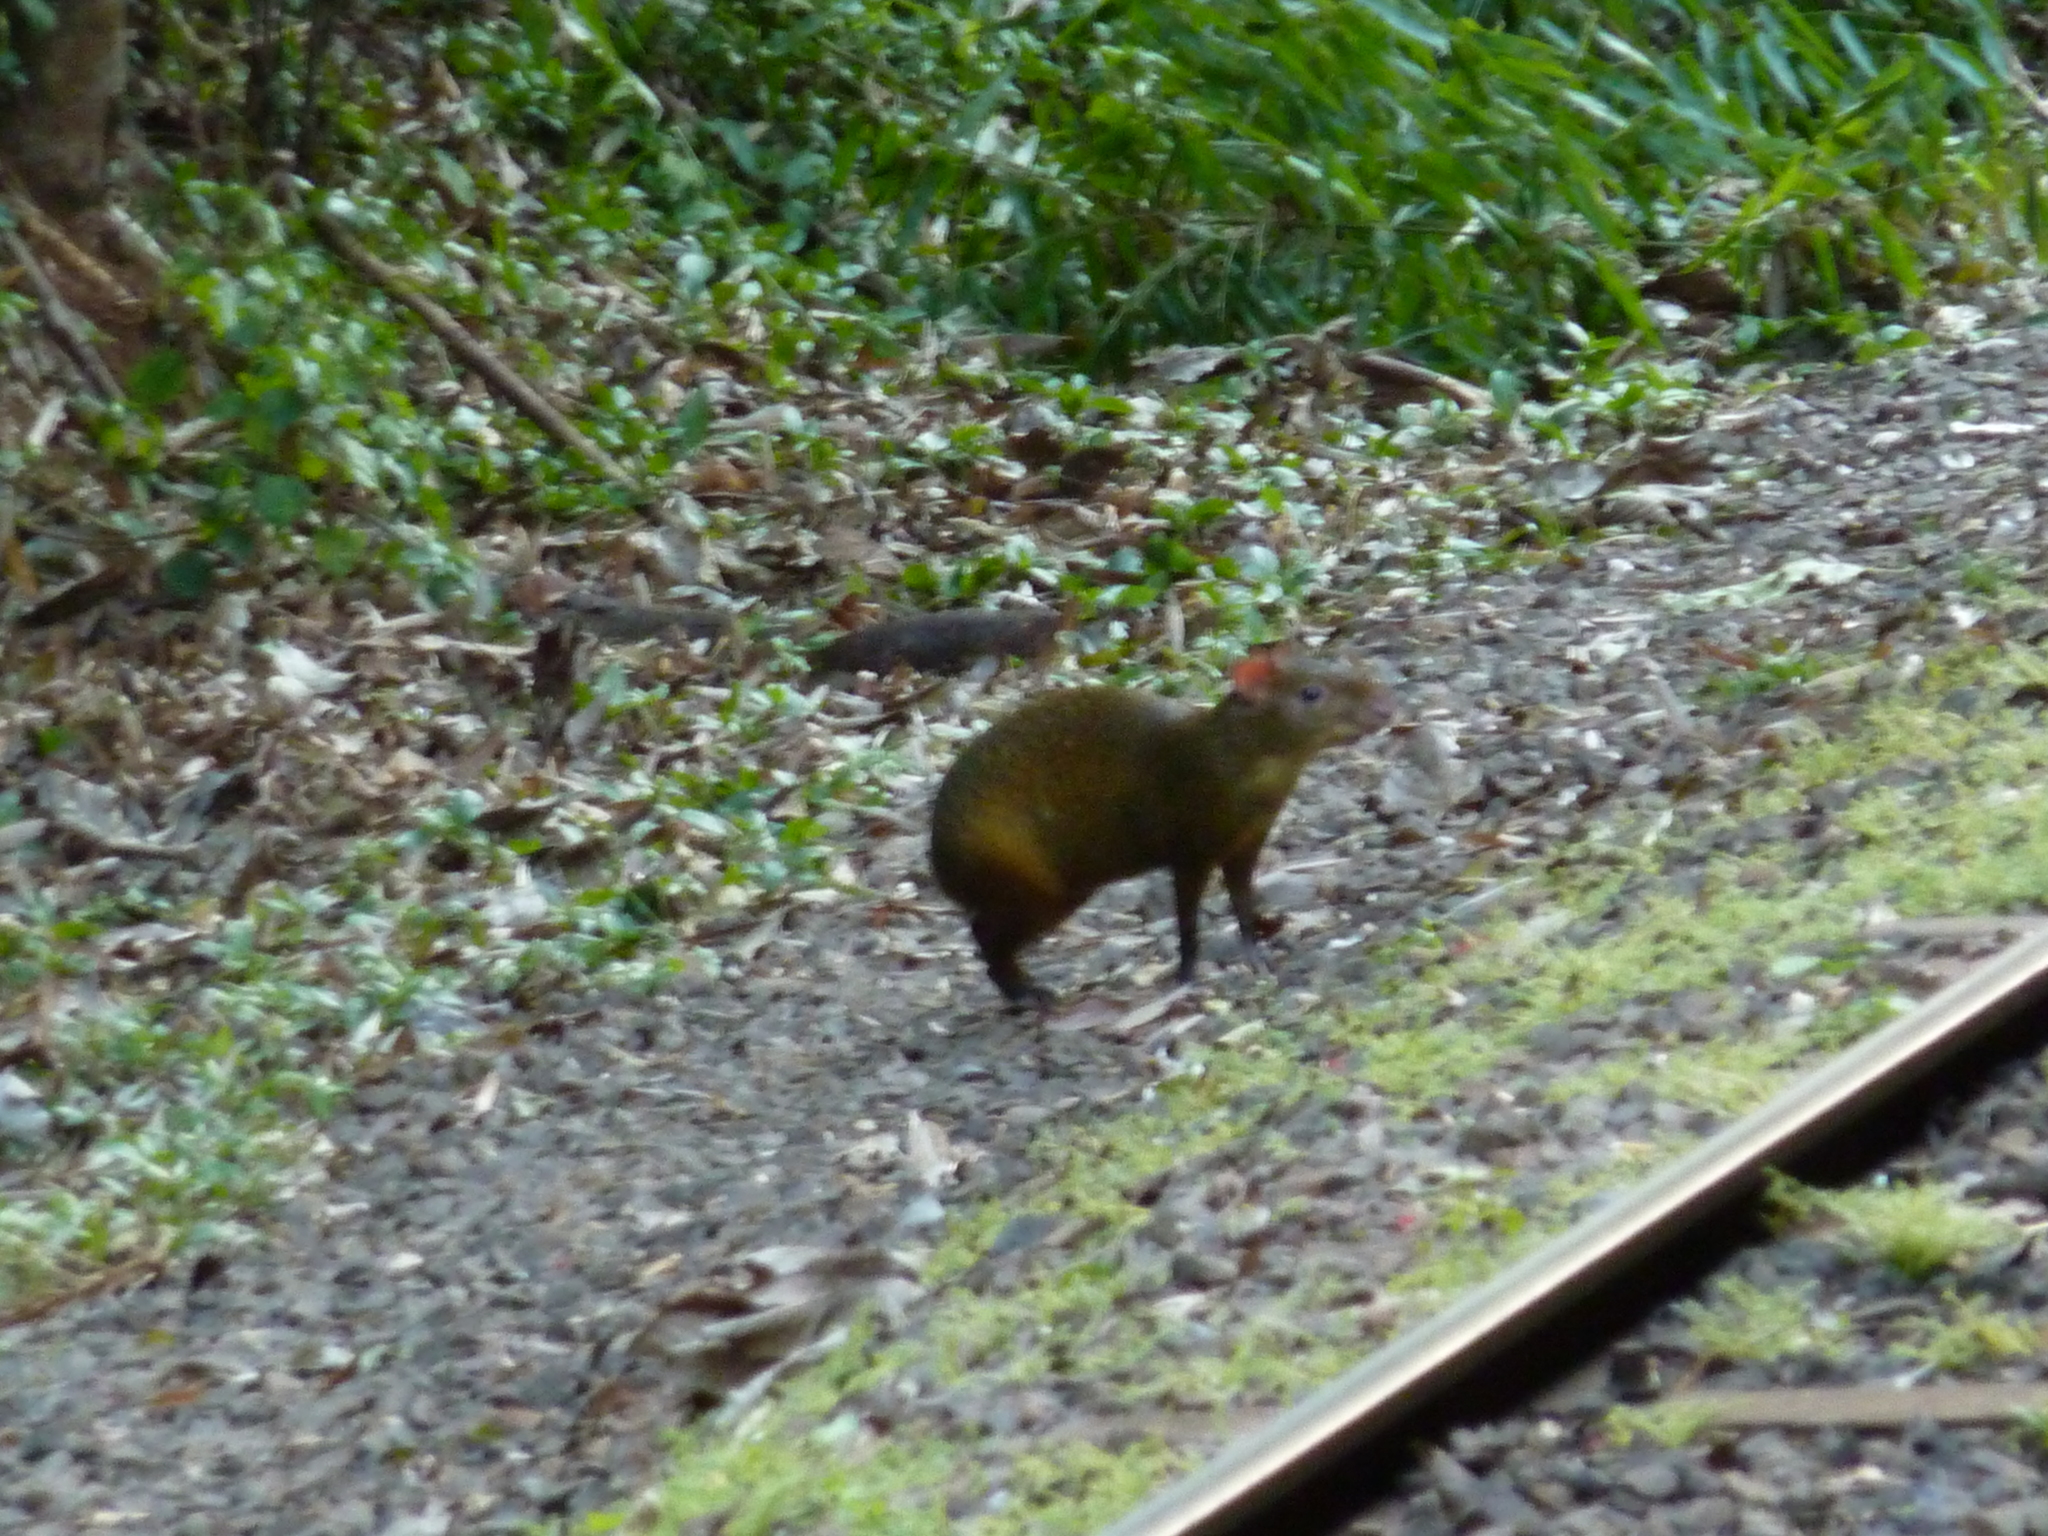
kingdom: Animalia
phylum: Chordata
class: Mammalia
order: Rodentia
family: Dasyproctidae
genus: Dasyprocta
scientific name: Dasyprocta azarae
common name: Azara's agouti
